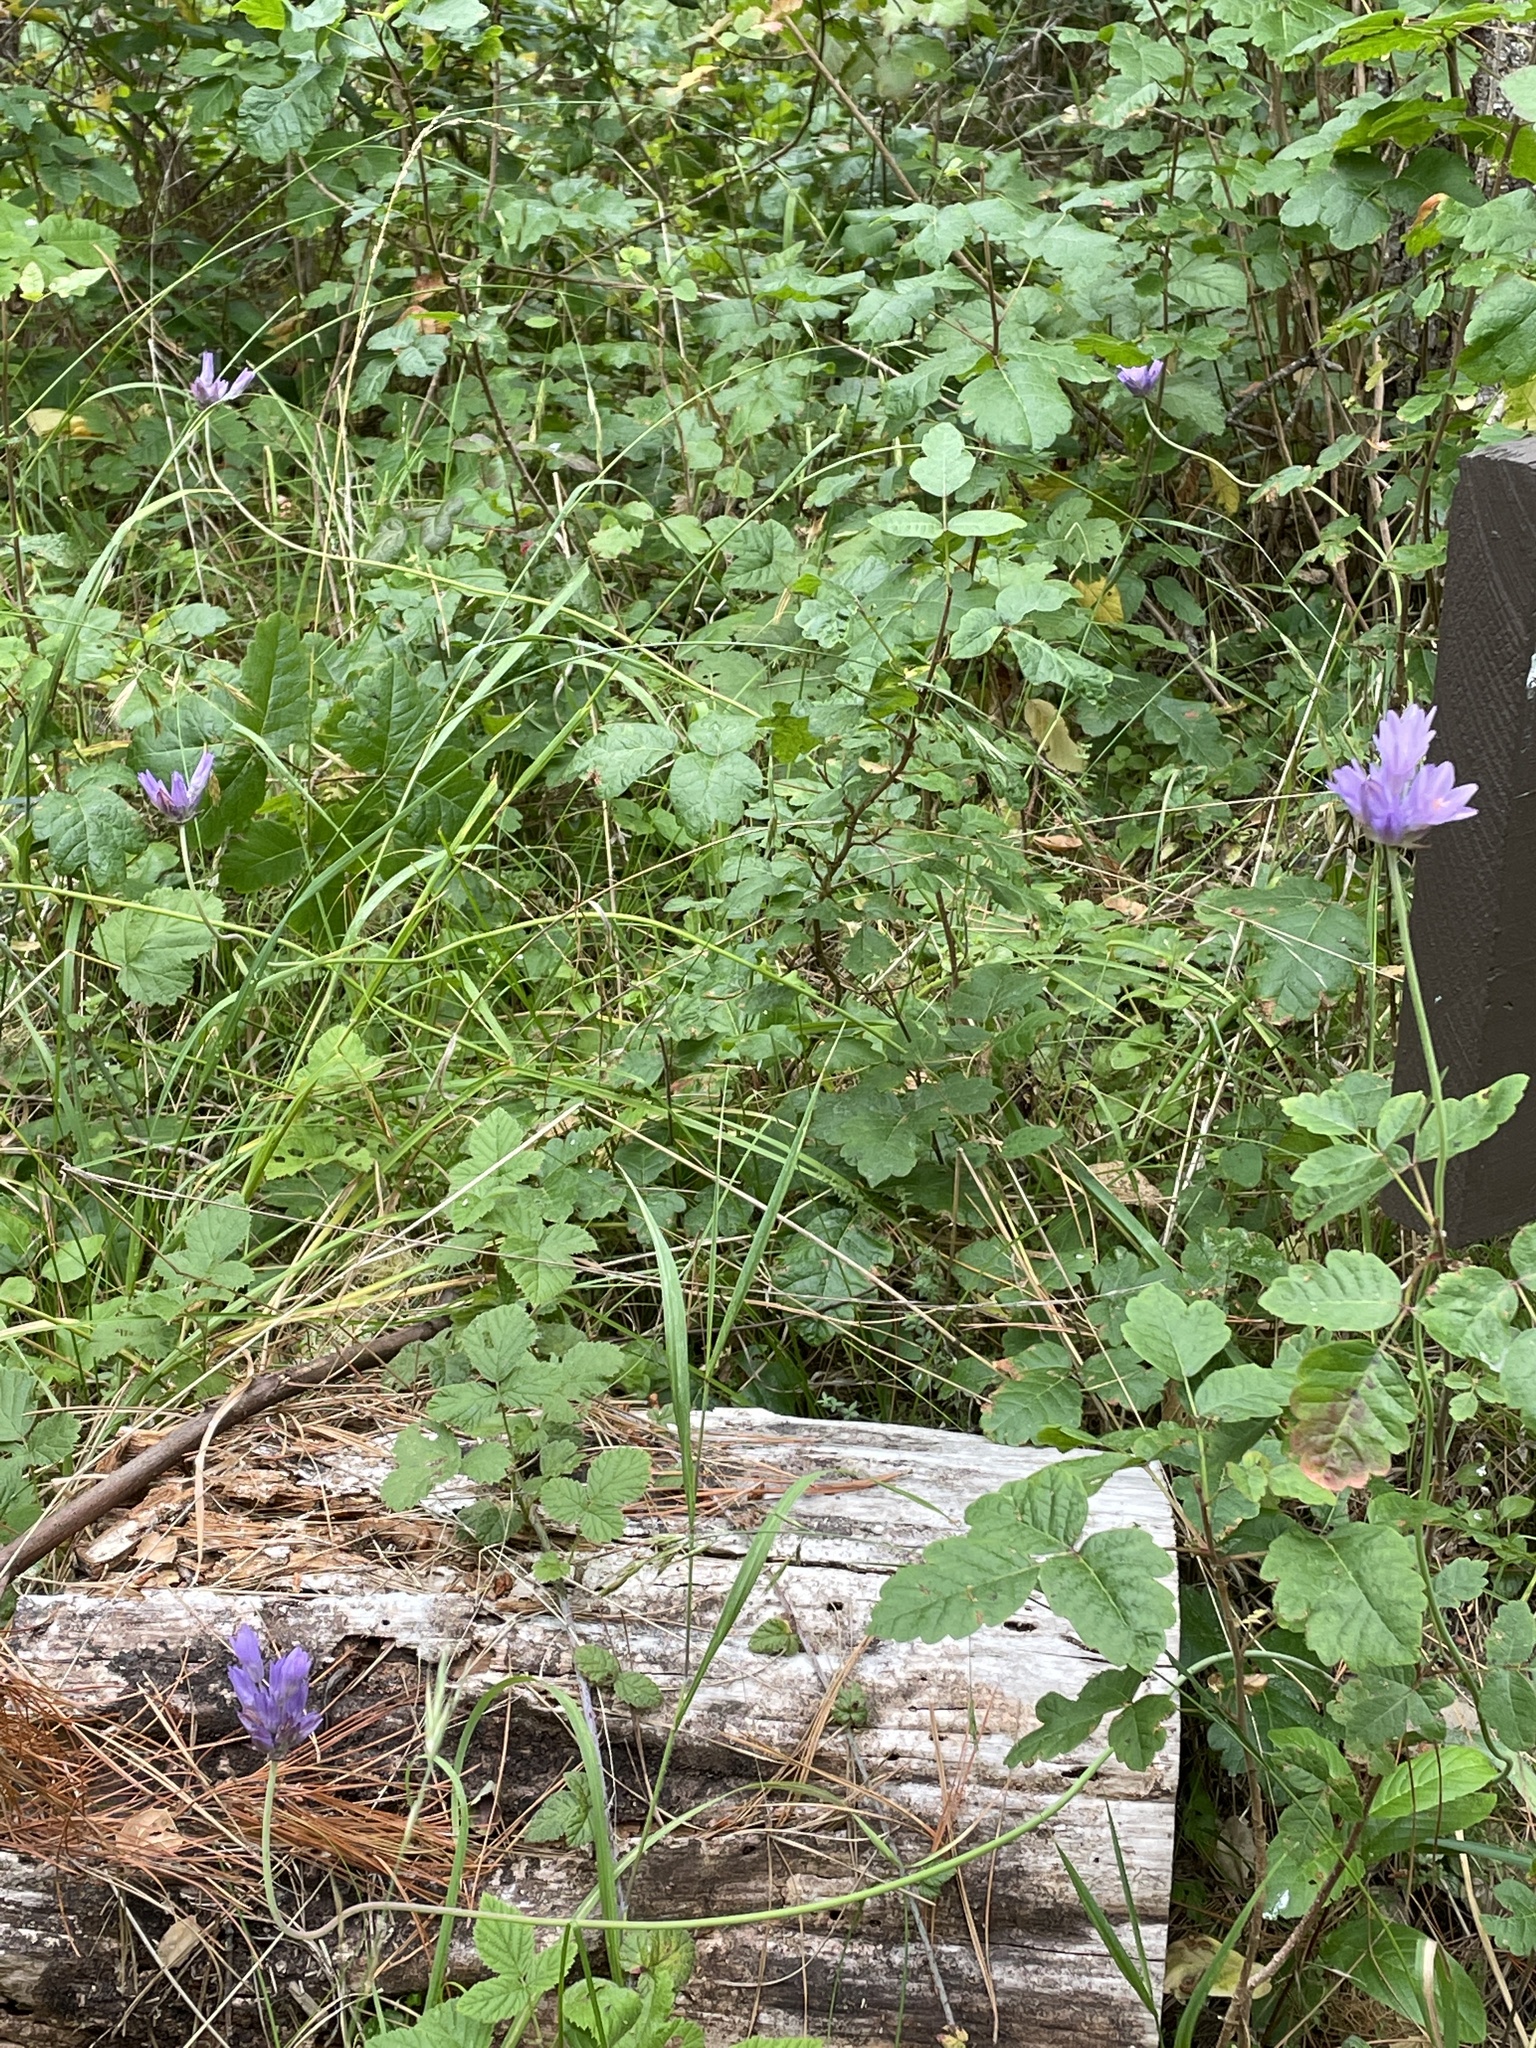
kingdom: Plantae
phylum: Tracheophyta
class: Liliopsida
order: Asparagales
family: Asparagaceae
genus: Dipterostemon
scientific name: Dipterostemon capitatus
